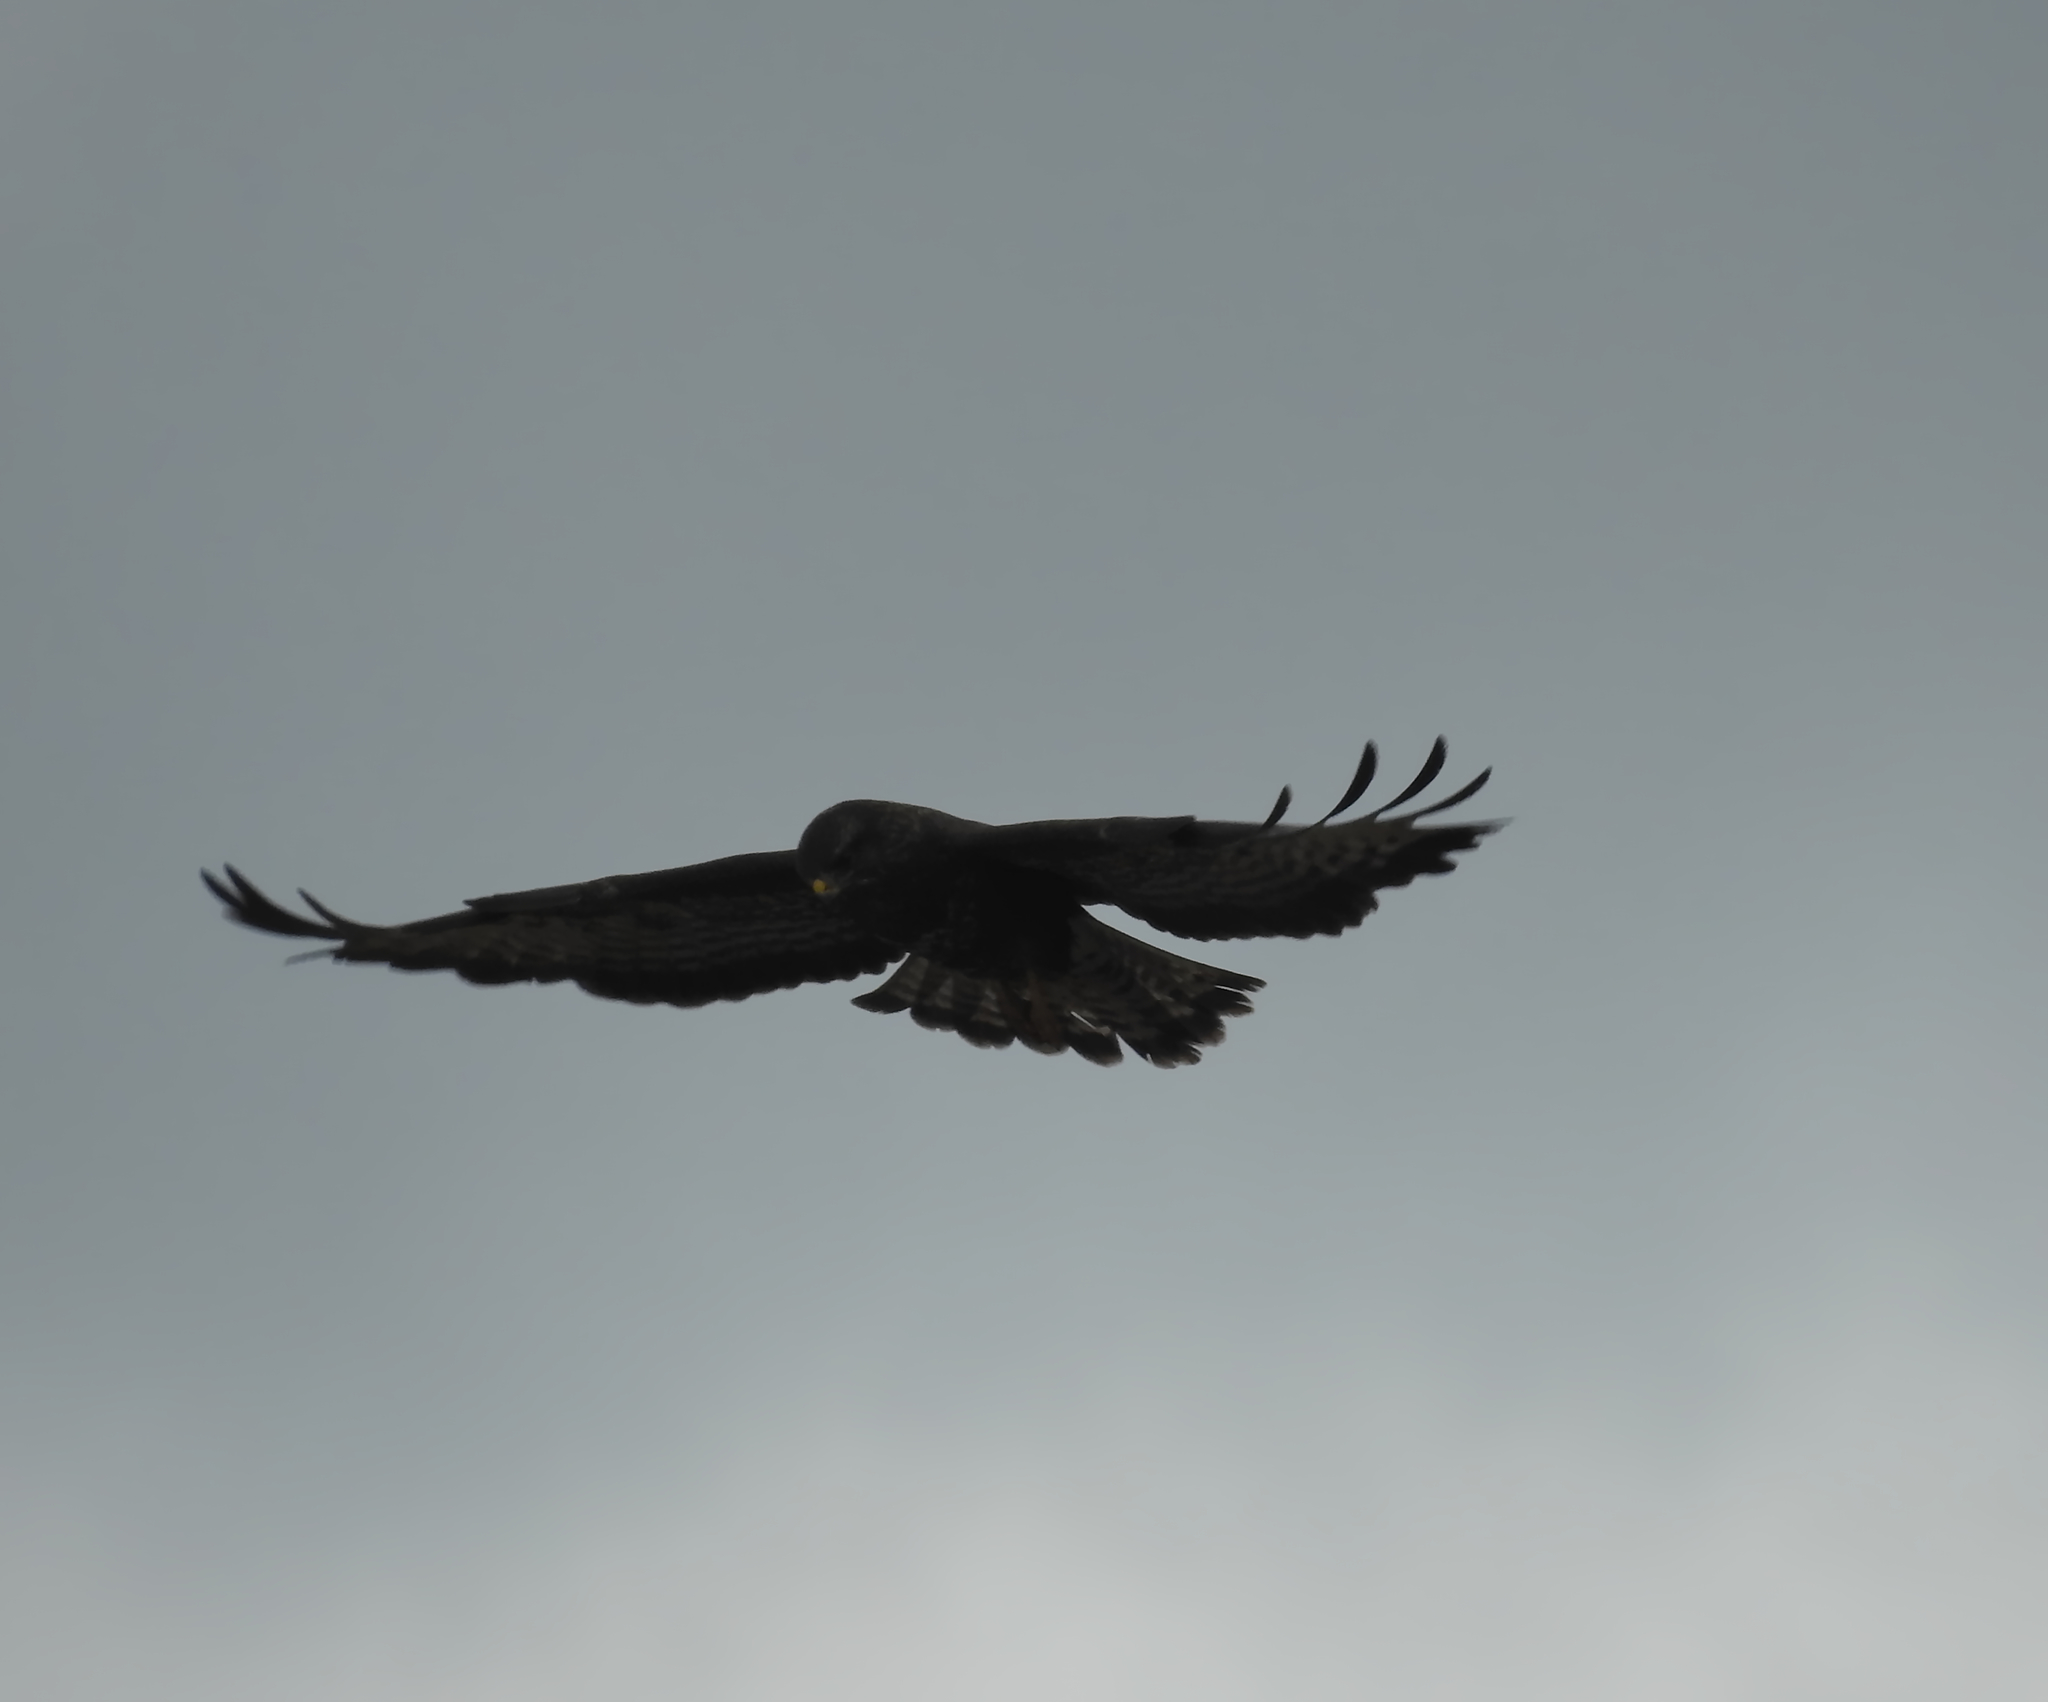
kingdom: Animalia
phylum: Chordata
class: Aves
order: Accipitriformes
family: Accipitridae
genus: Buteo
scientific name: Buteo buteo
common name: Common buzzard
